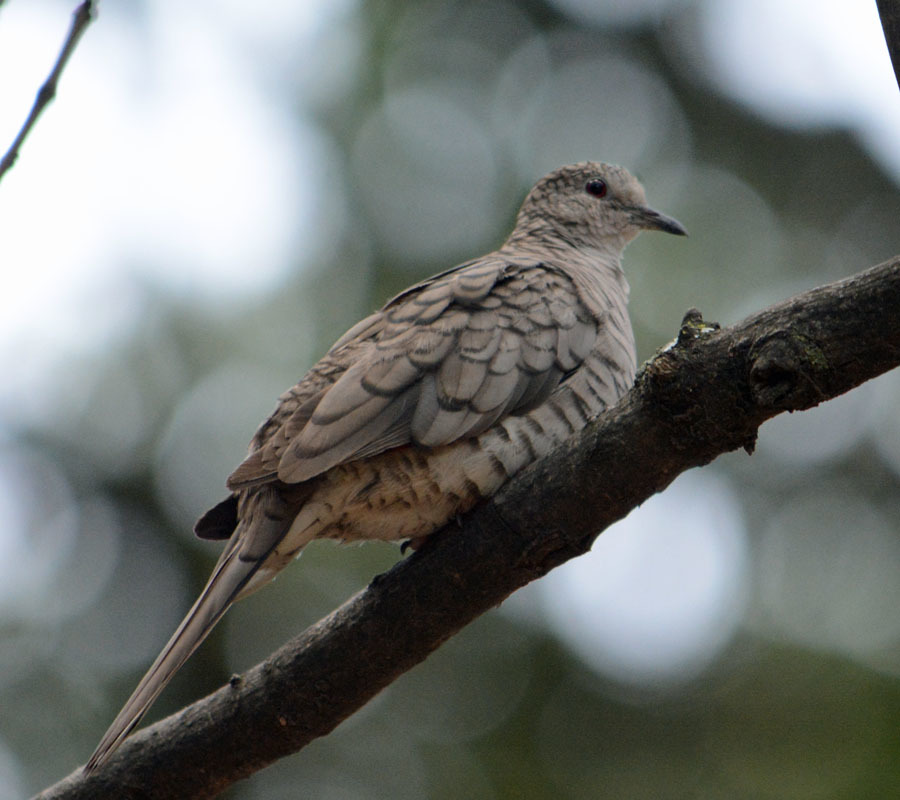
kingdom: Animalia
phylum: Chordata
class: Aves
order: Columbiformes
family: Columbidae
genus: Columbina
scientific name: Columbina inca
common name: Inca dove
